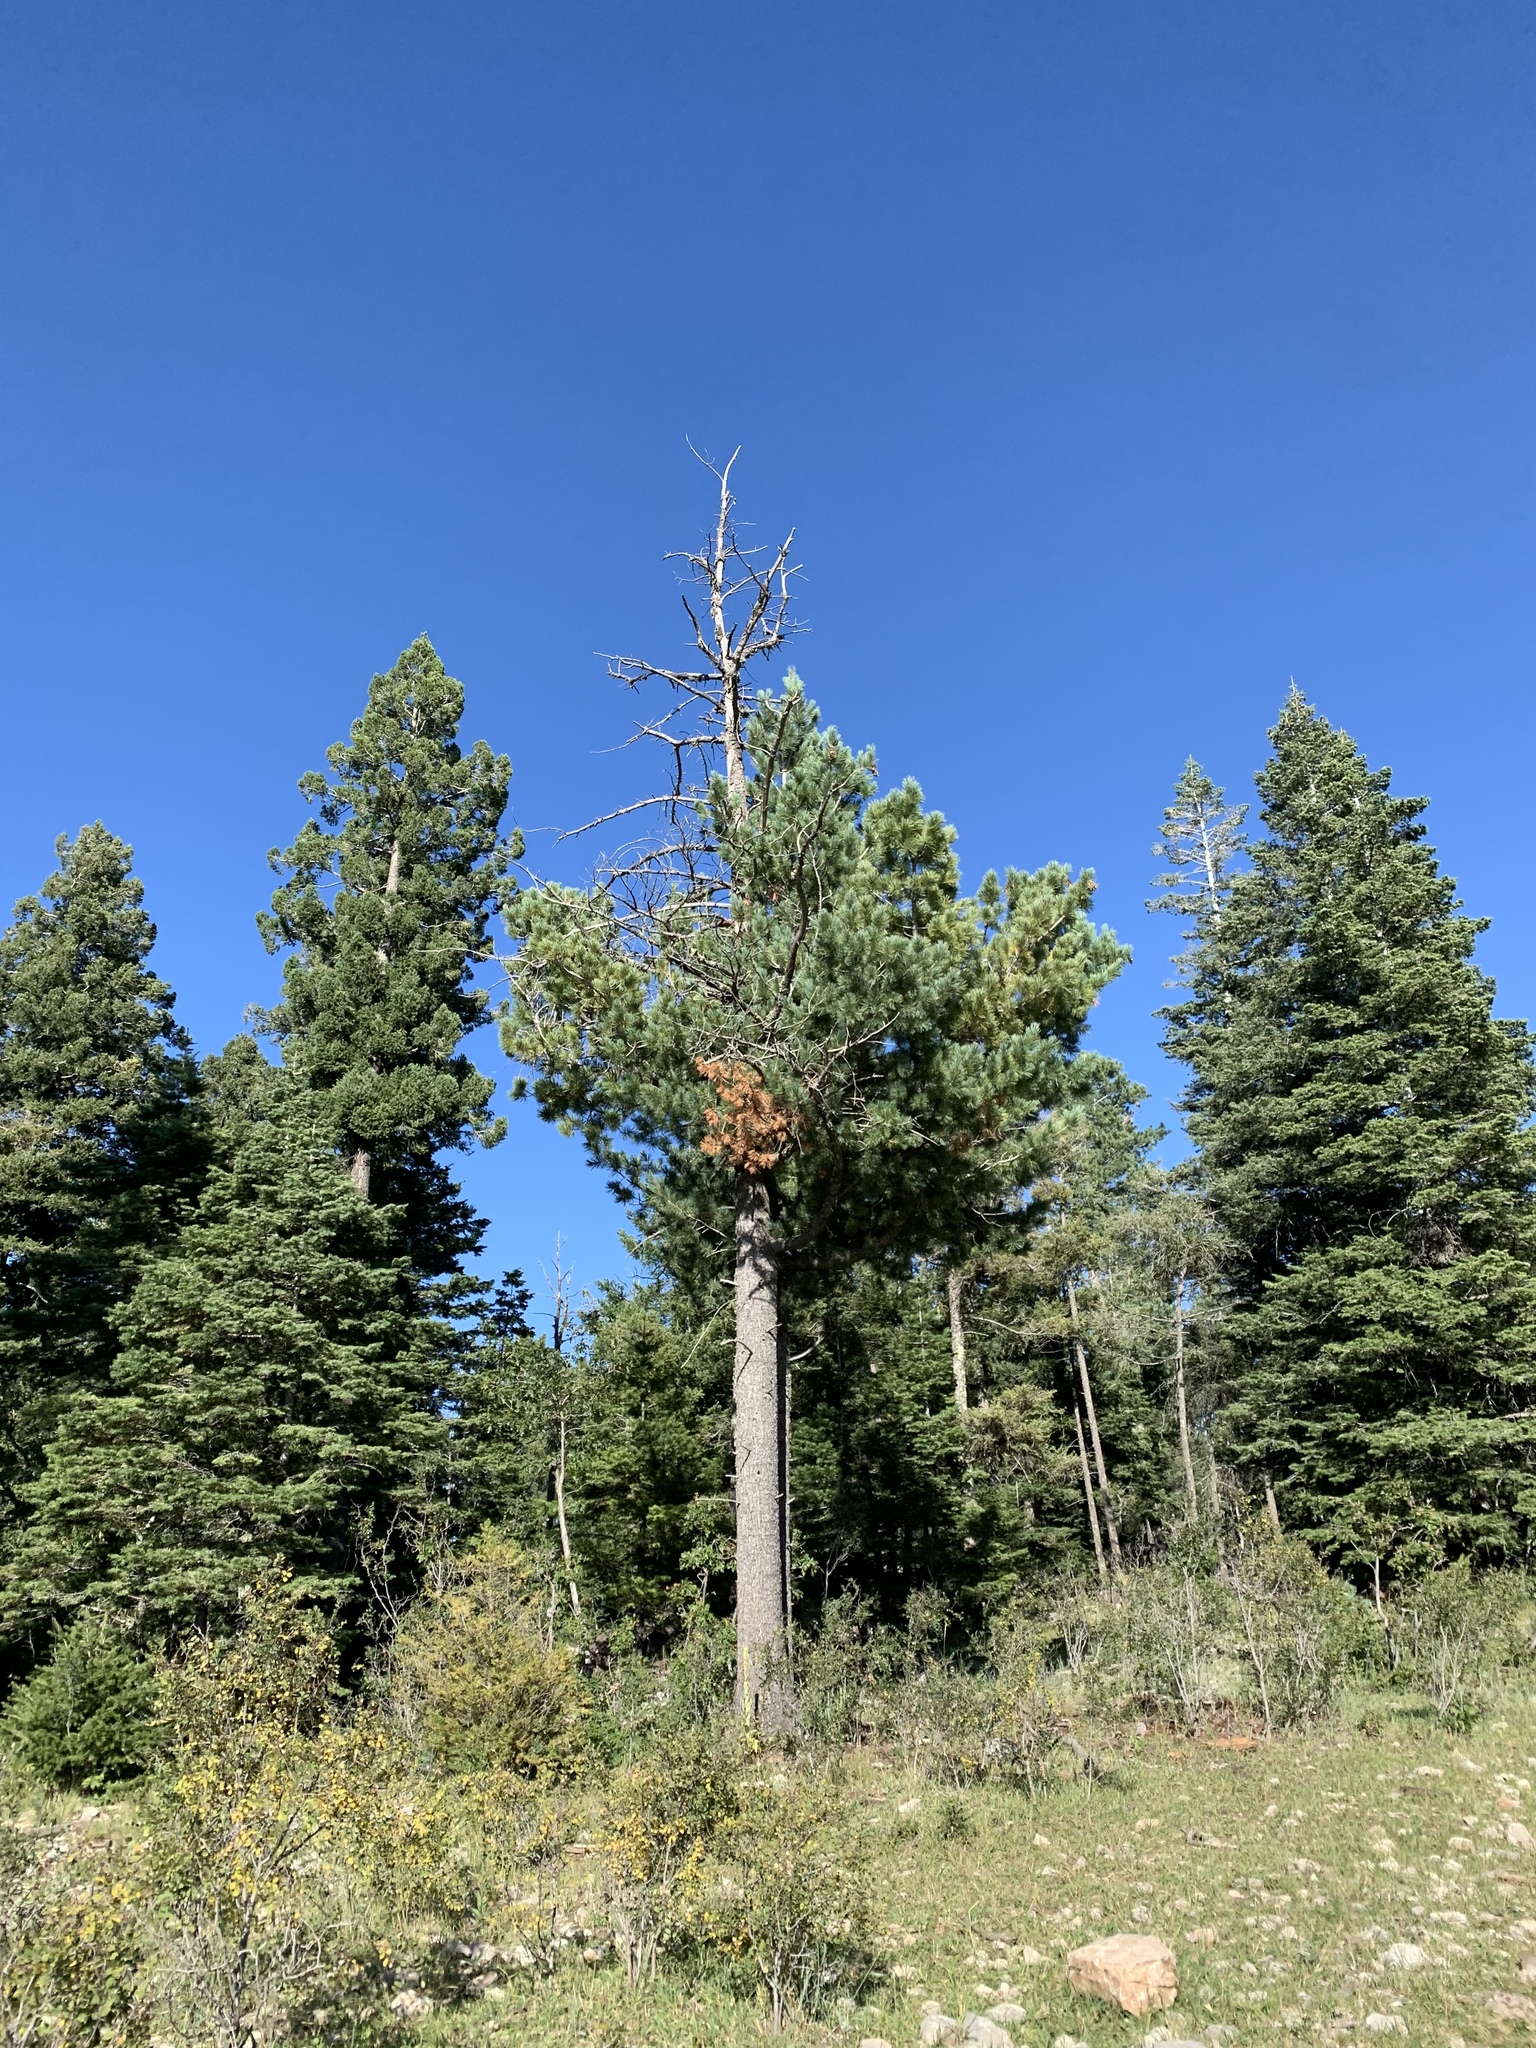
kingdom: Plantae
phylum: Tracheophyta
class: Pinopsida
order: Pinales
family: Pinaceae
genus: Pinus
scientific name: Pinus strobiformis
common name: Southwestern white pine
